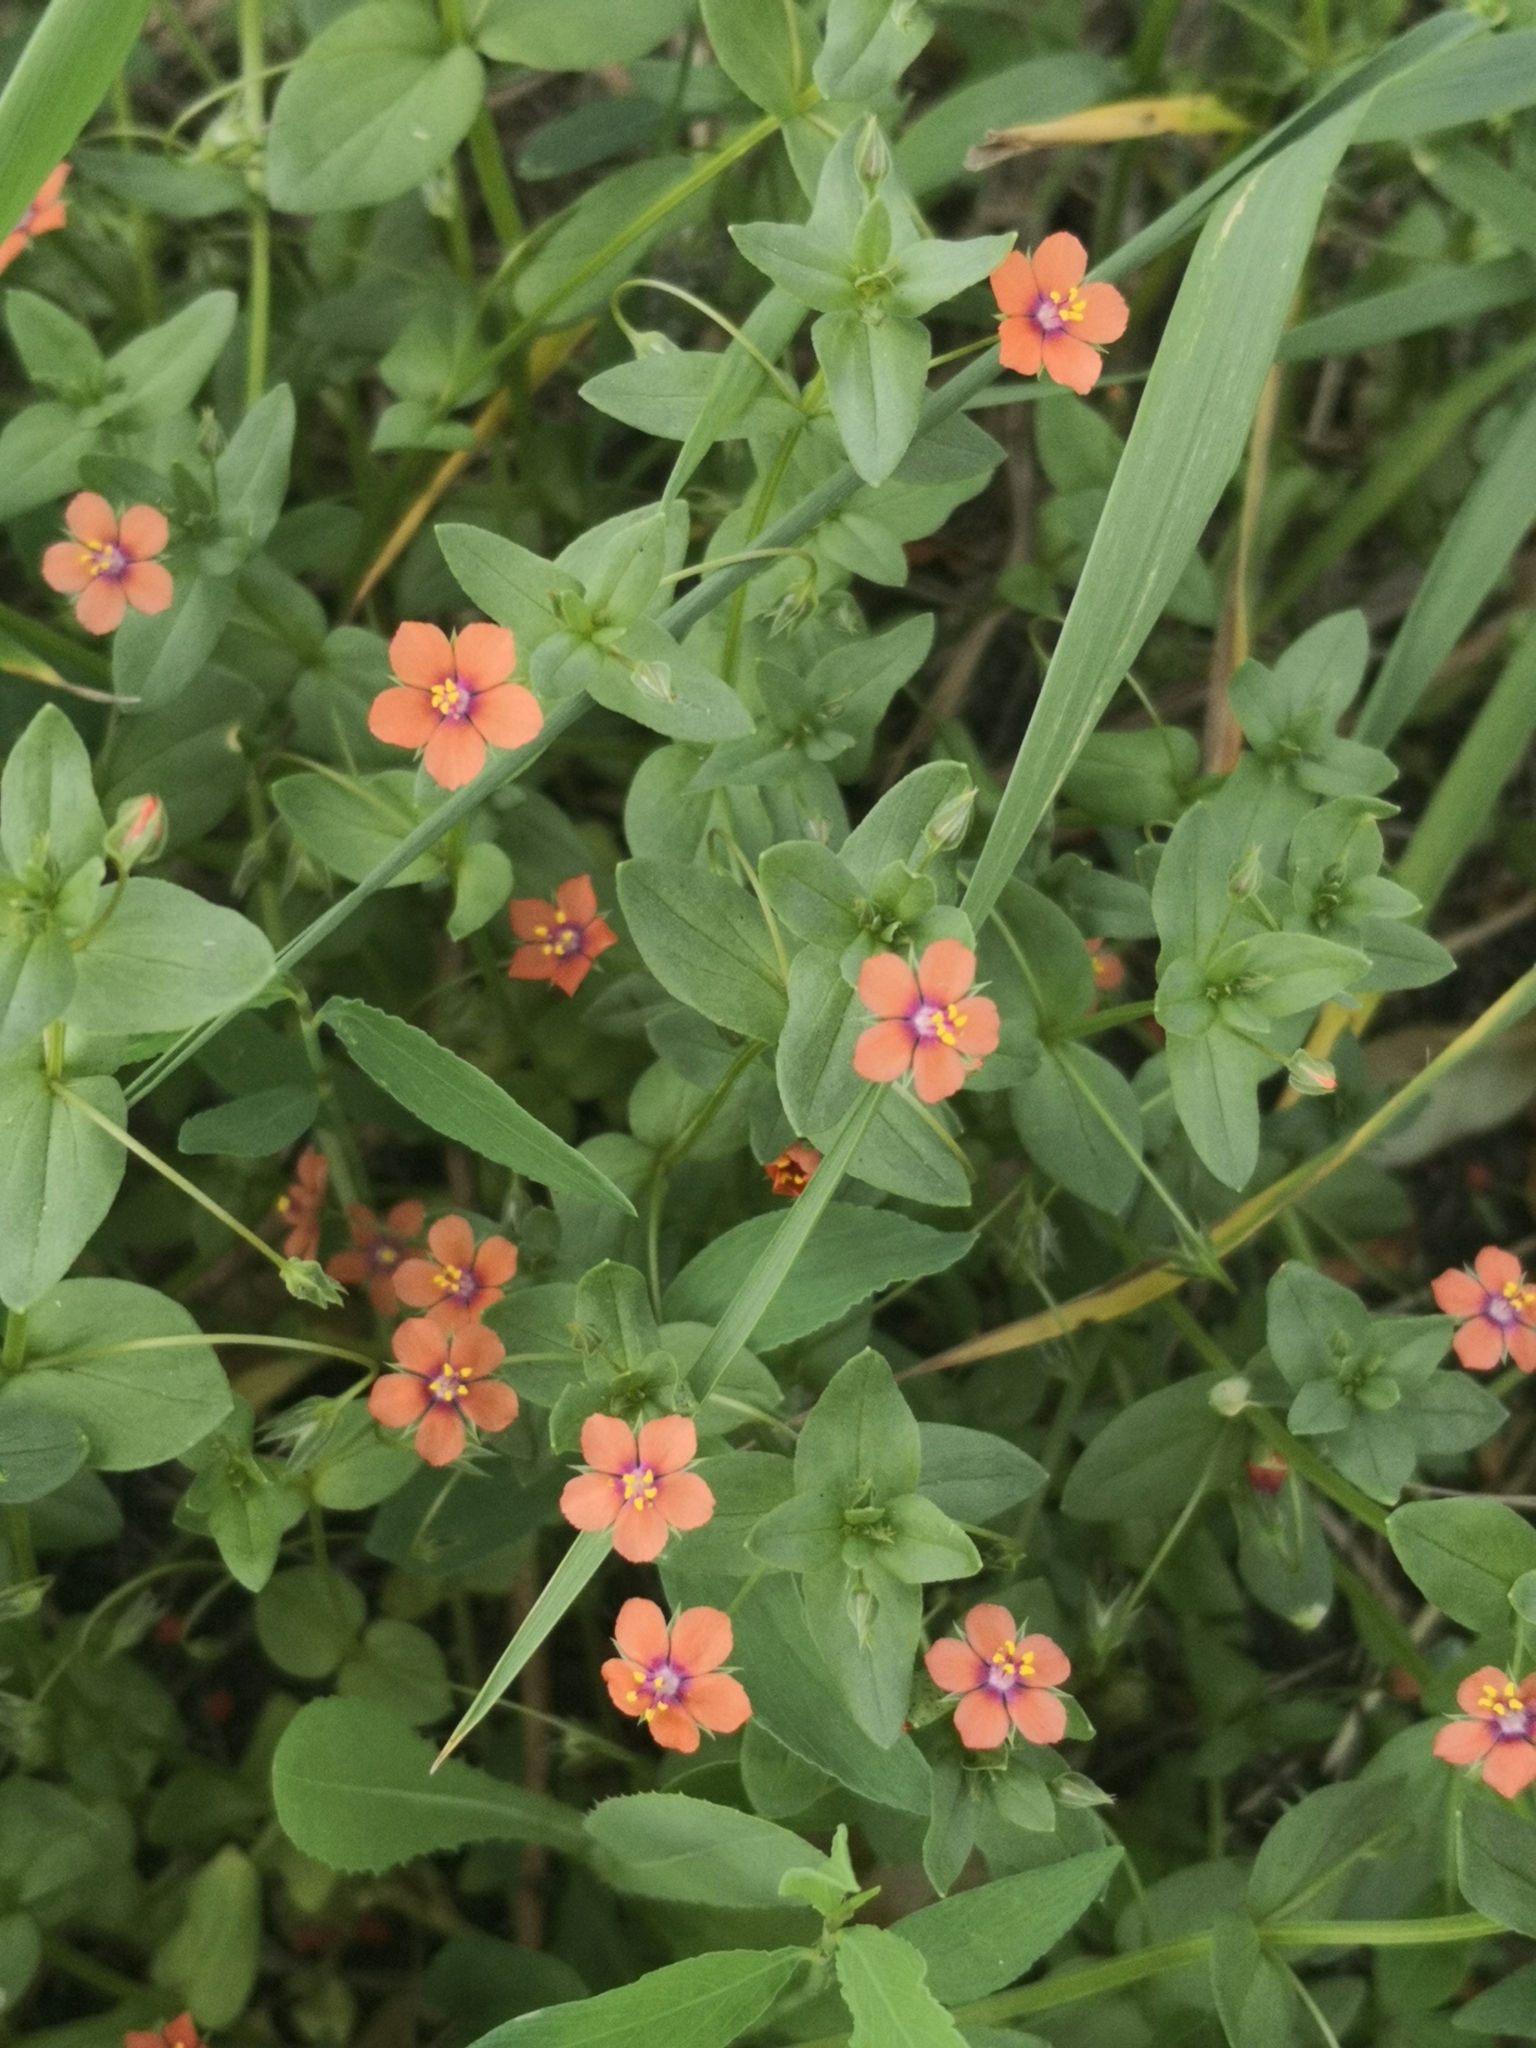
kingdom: Plantae
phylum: Tracheophyta
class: Magnoliopsida
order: Ericales
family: Primulaceae
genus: Lysimachia
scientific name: Lysimachia arvensis
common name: Scarlet pimpernel
